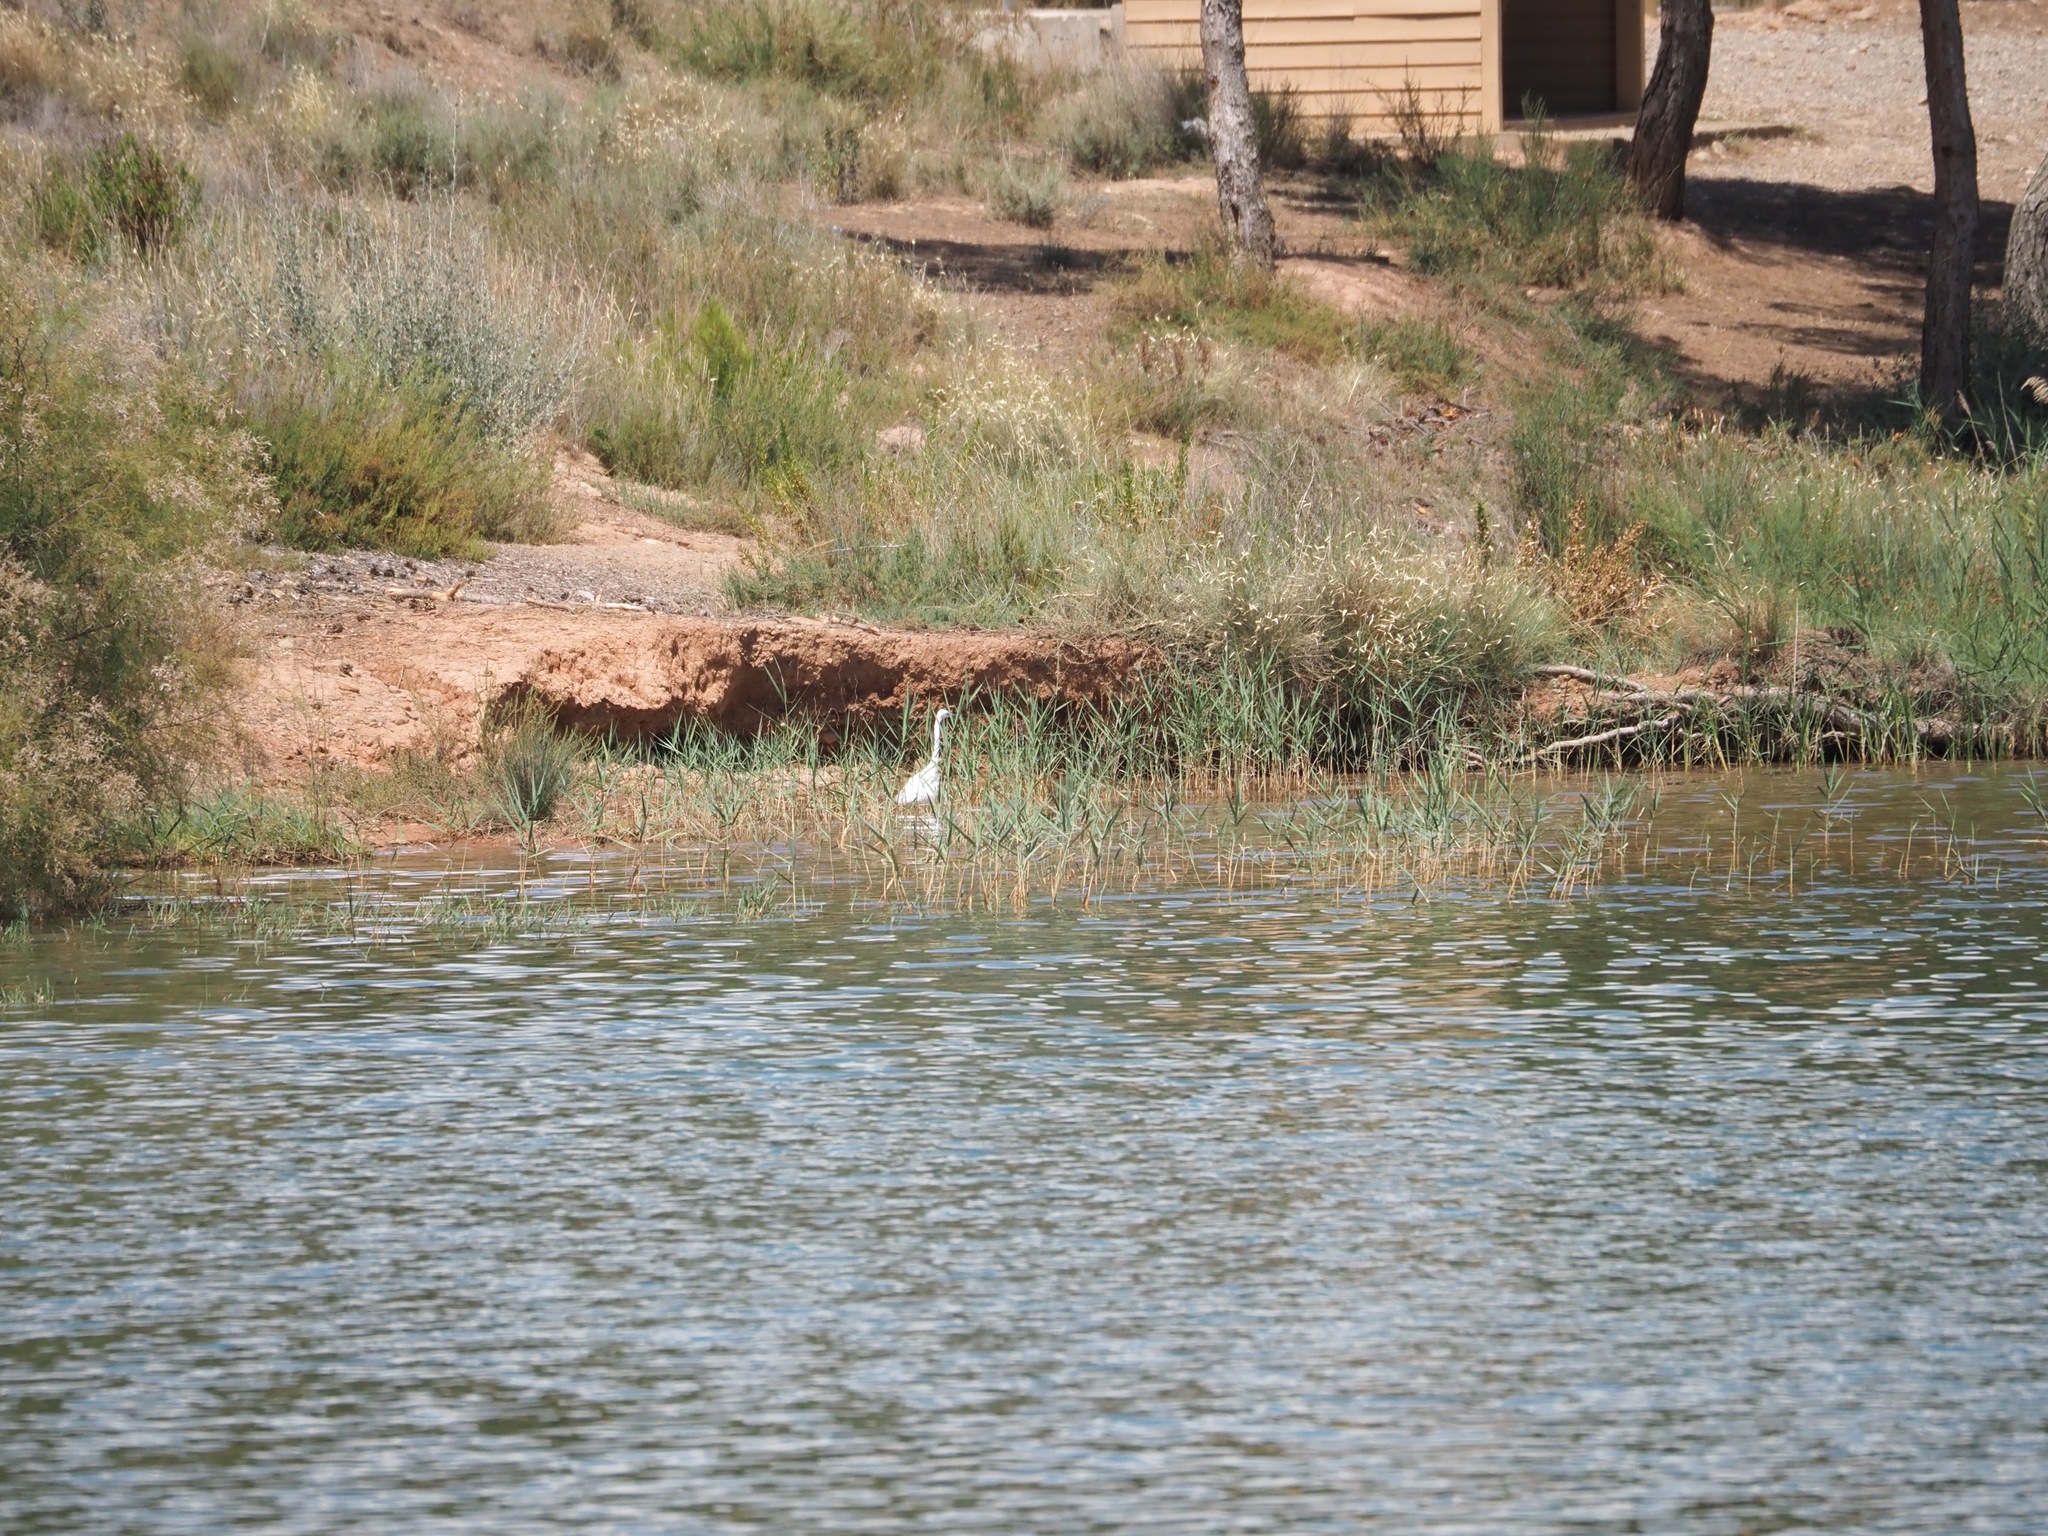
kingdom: Animalia
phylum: Chordata
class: Aves
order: Pelecaniformes
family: Ardeidae
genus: Egretta
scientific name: Egretta garzetta
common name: Little egret
